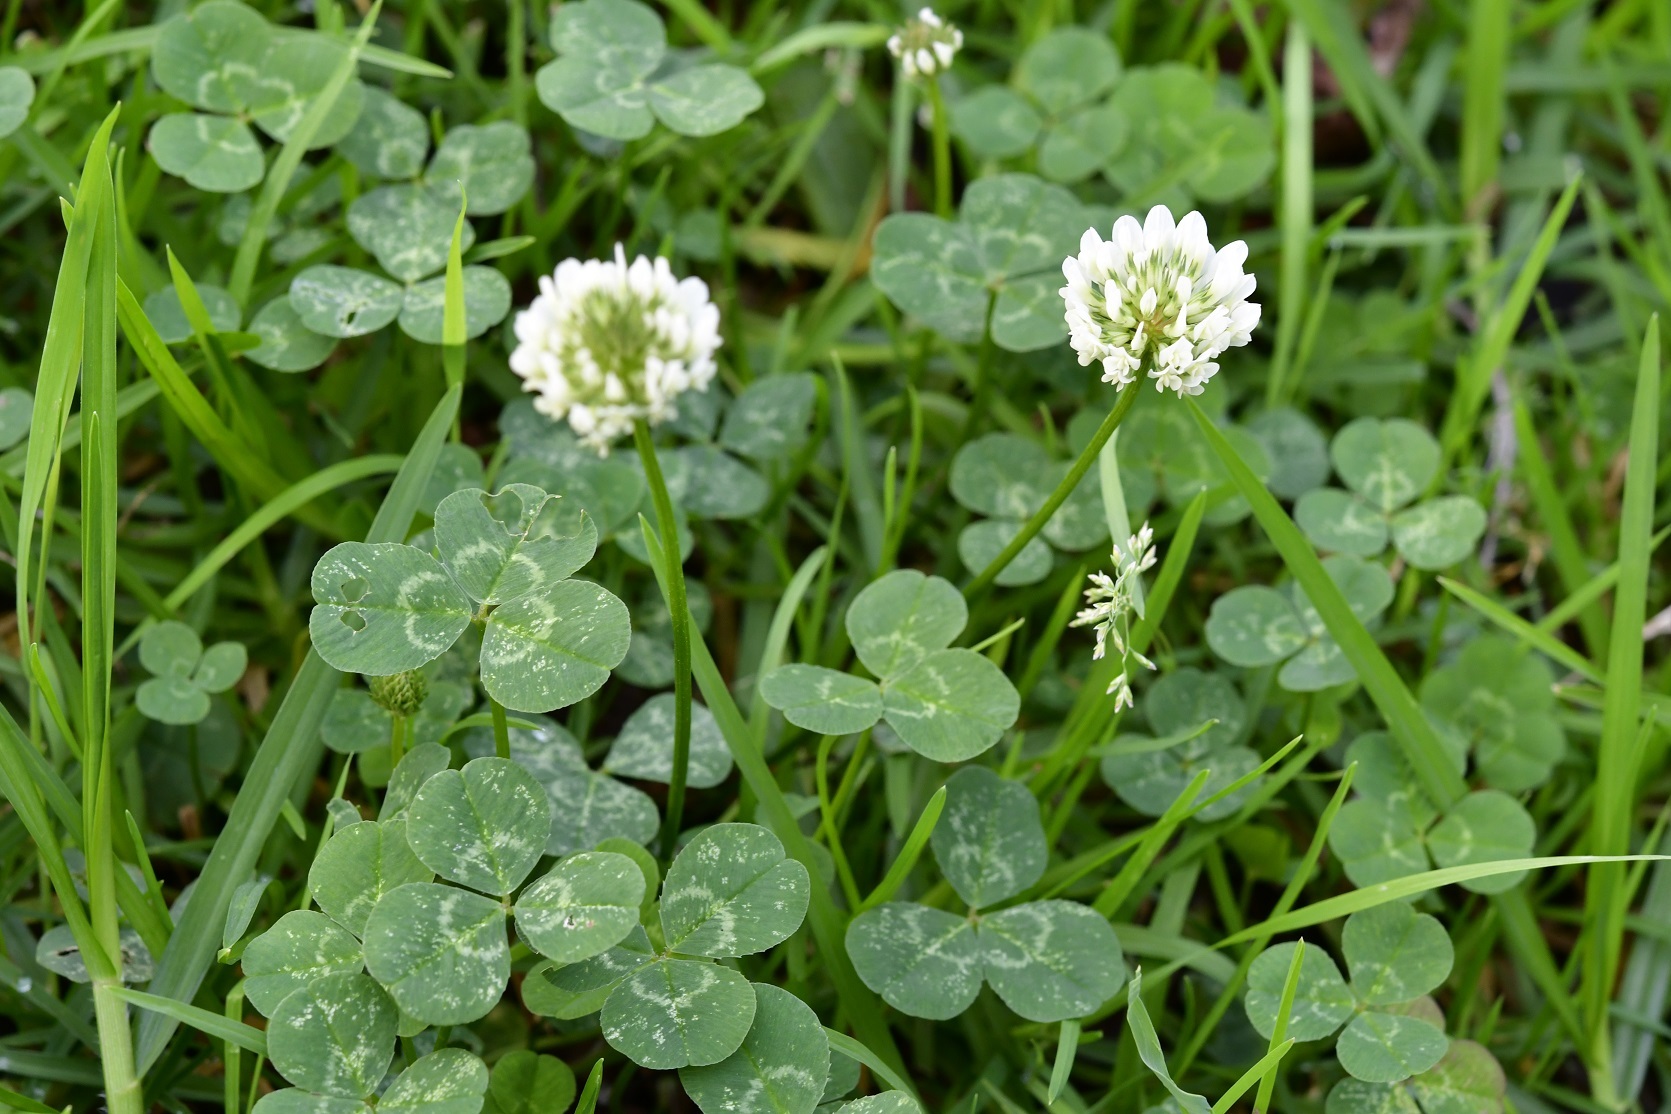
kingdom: Plantae
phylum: Tracheophyta
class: Magnoliopsida
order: Fabales
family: Fabaceae
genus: Trifolium
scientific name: Trifolium repens
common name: White clover
